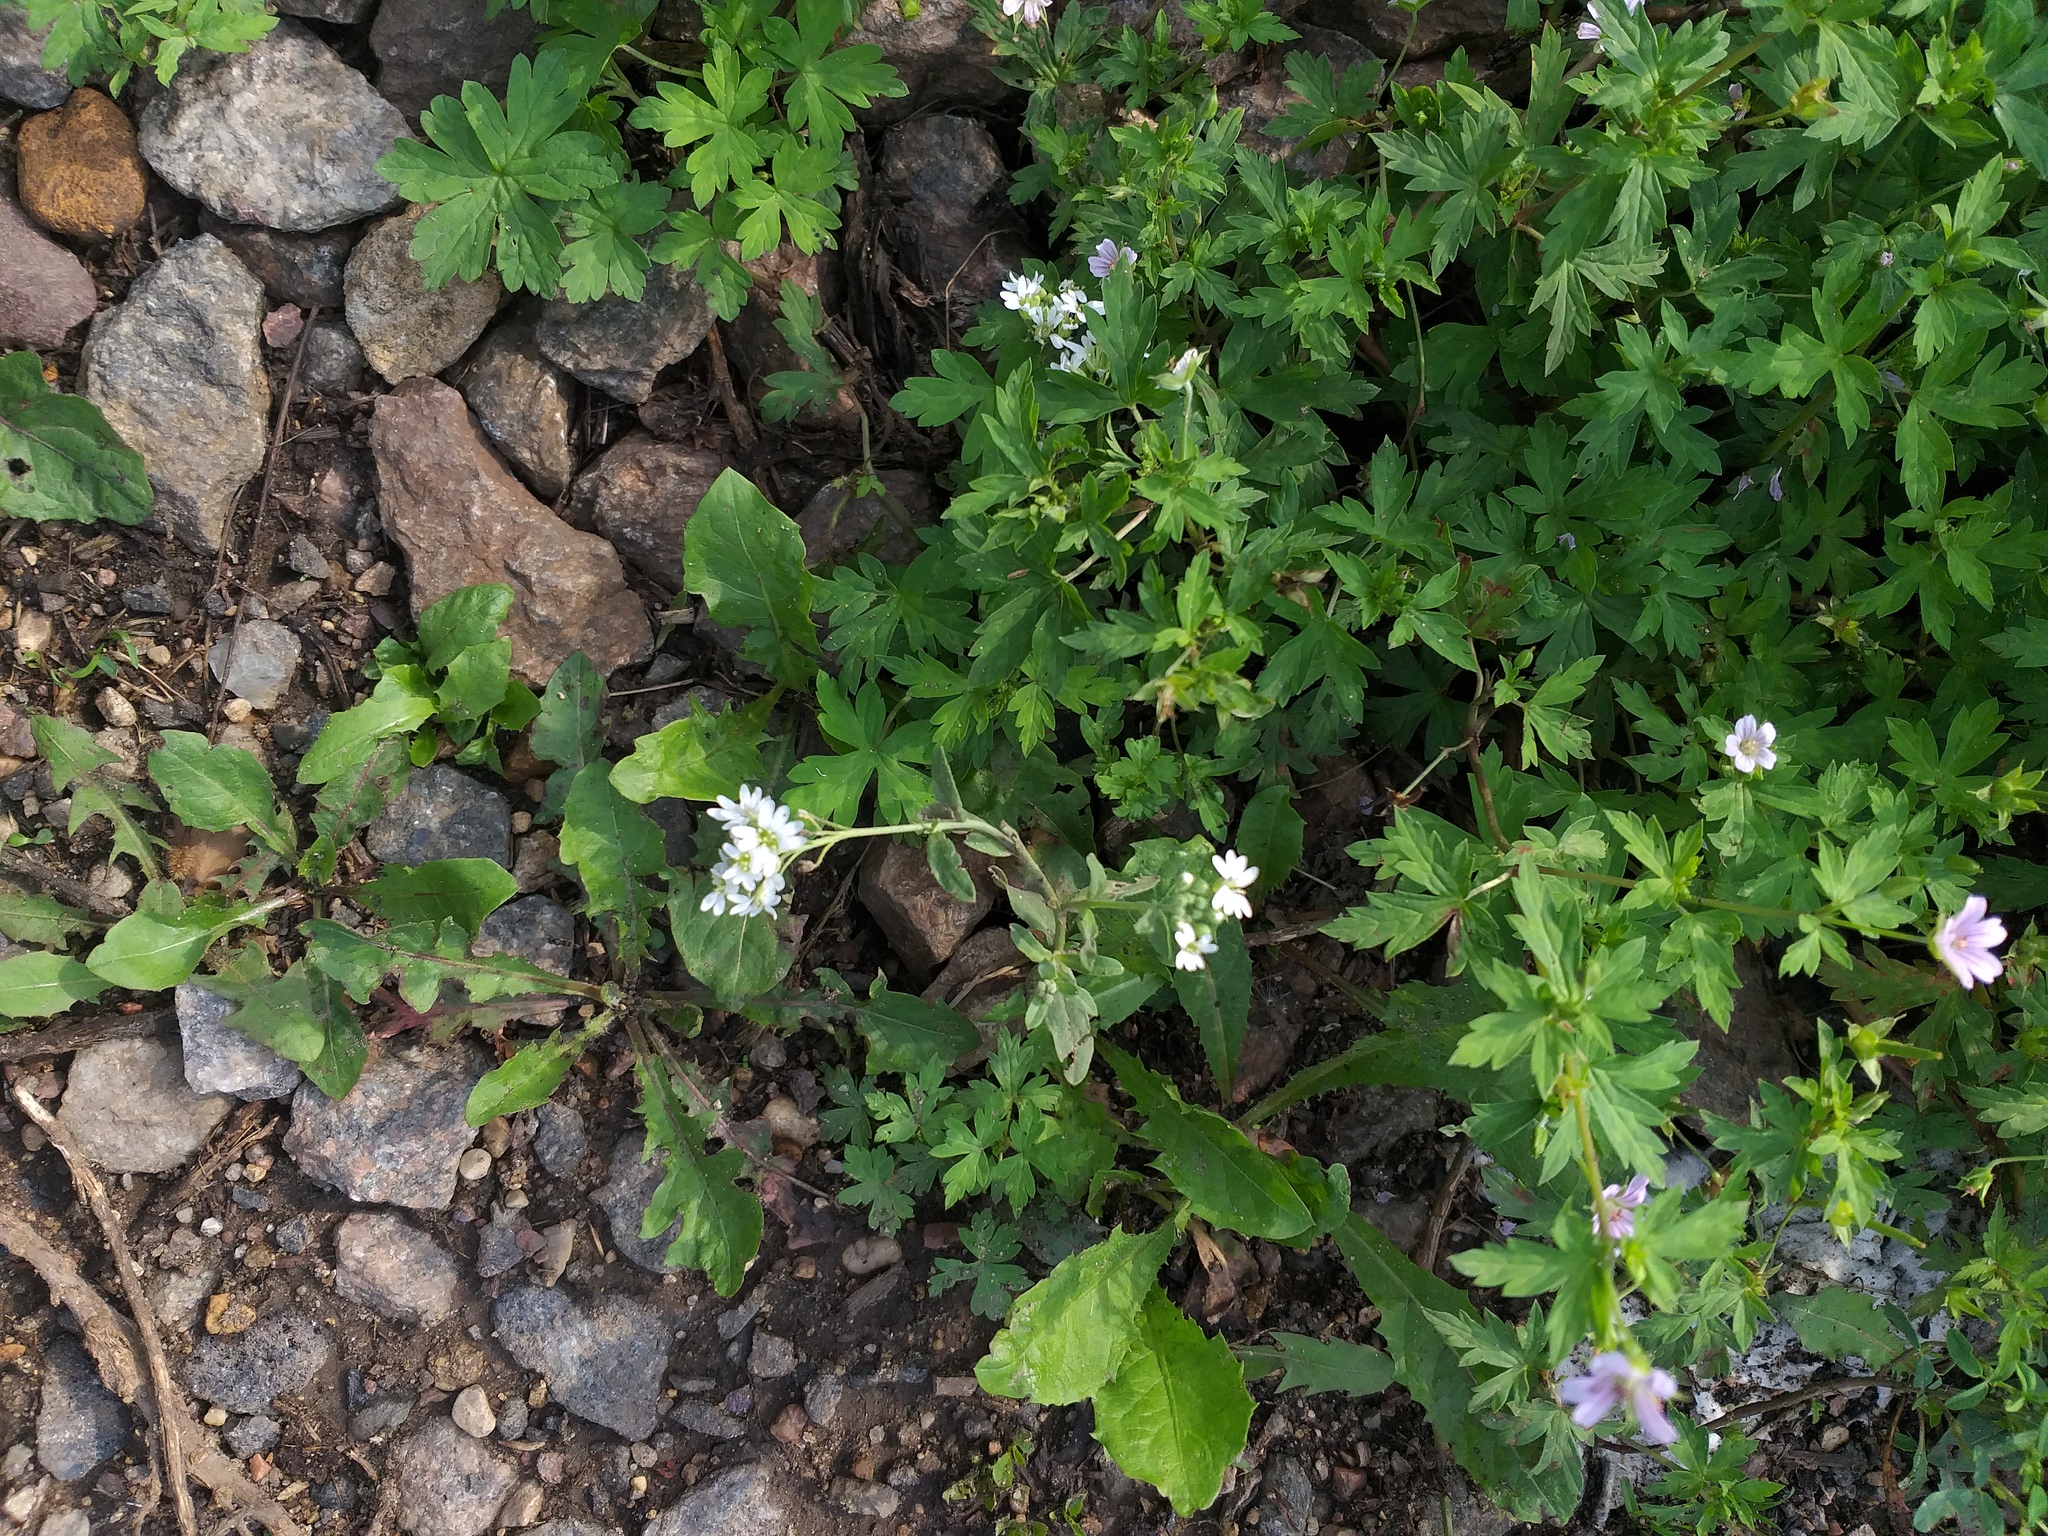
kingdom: Plantae
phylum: Tracheophyta
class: Magnoliopsida
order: Brassicales
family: Brassicaceae
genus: Berteroa
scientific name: Berteroa incana
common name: Hoary alison
